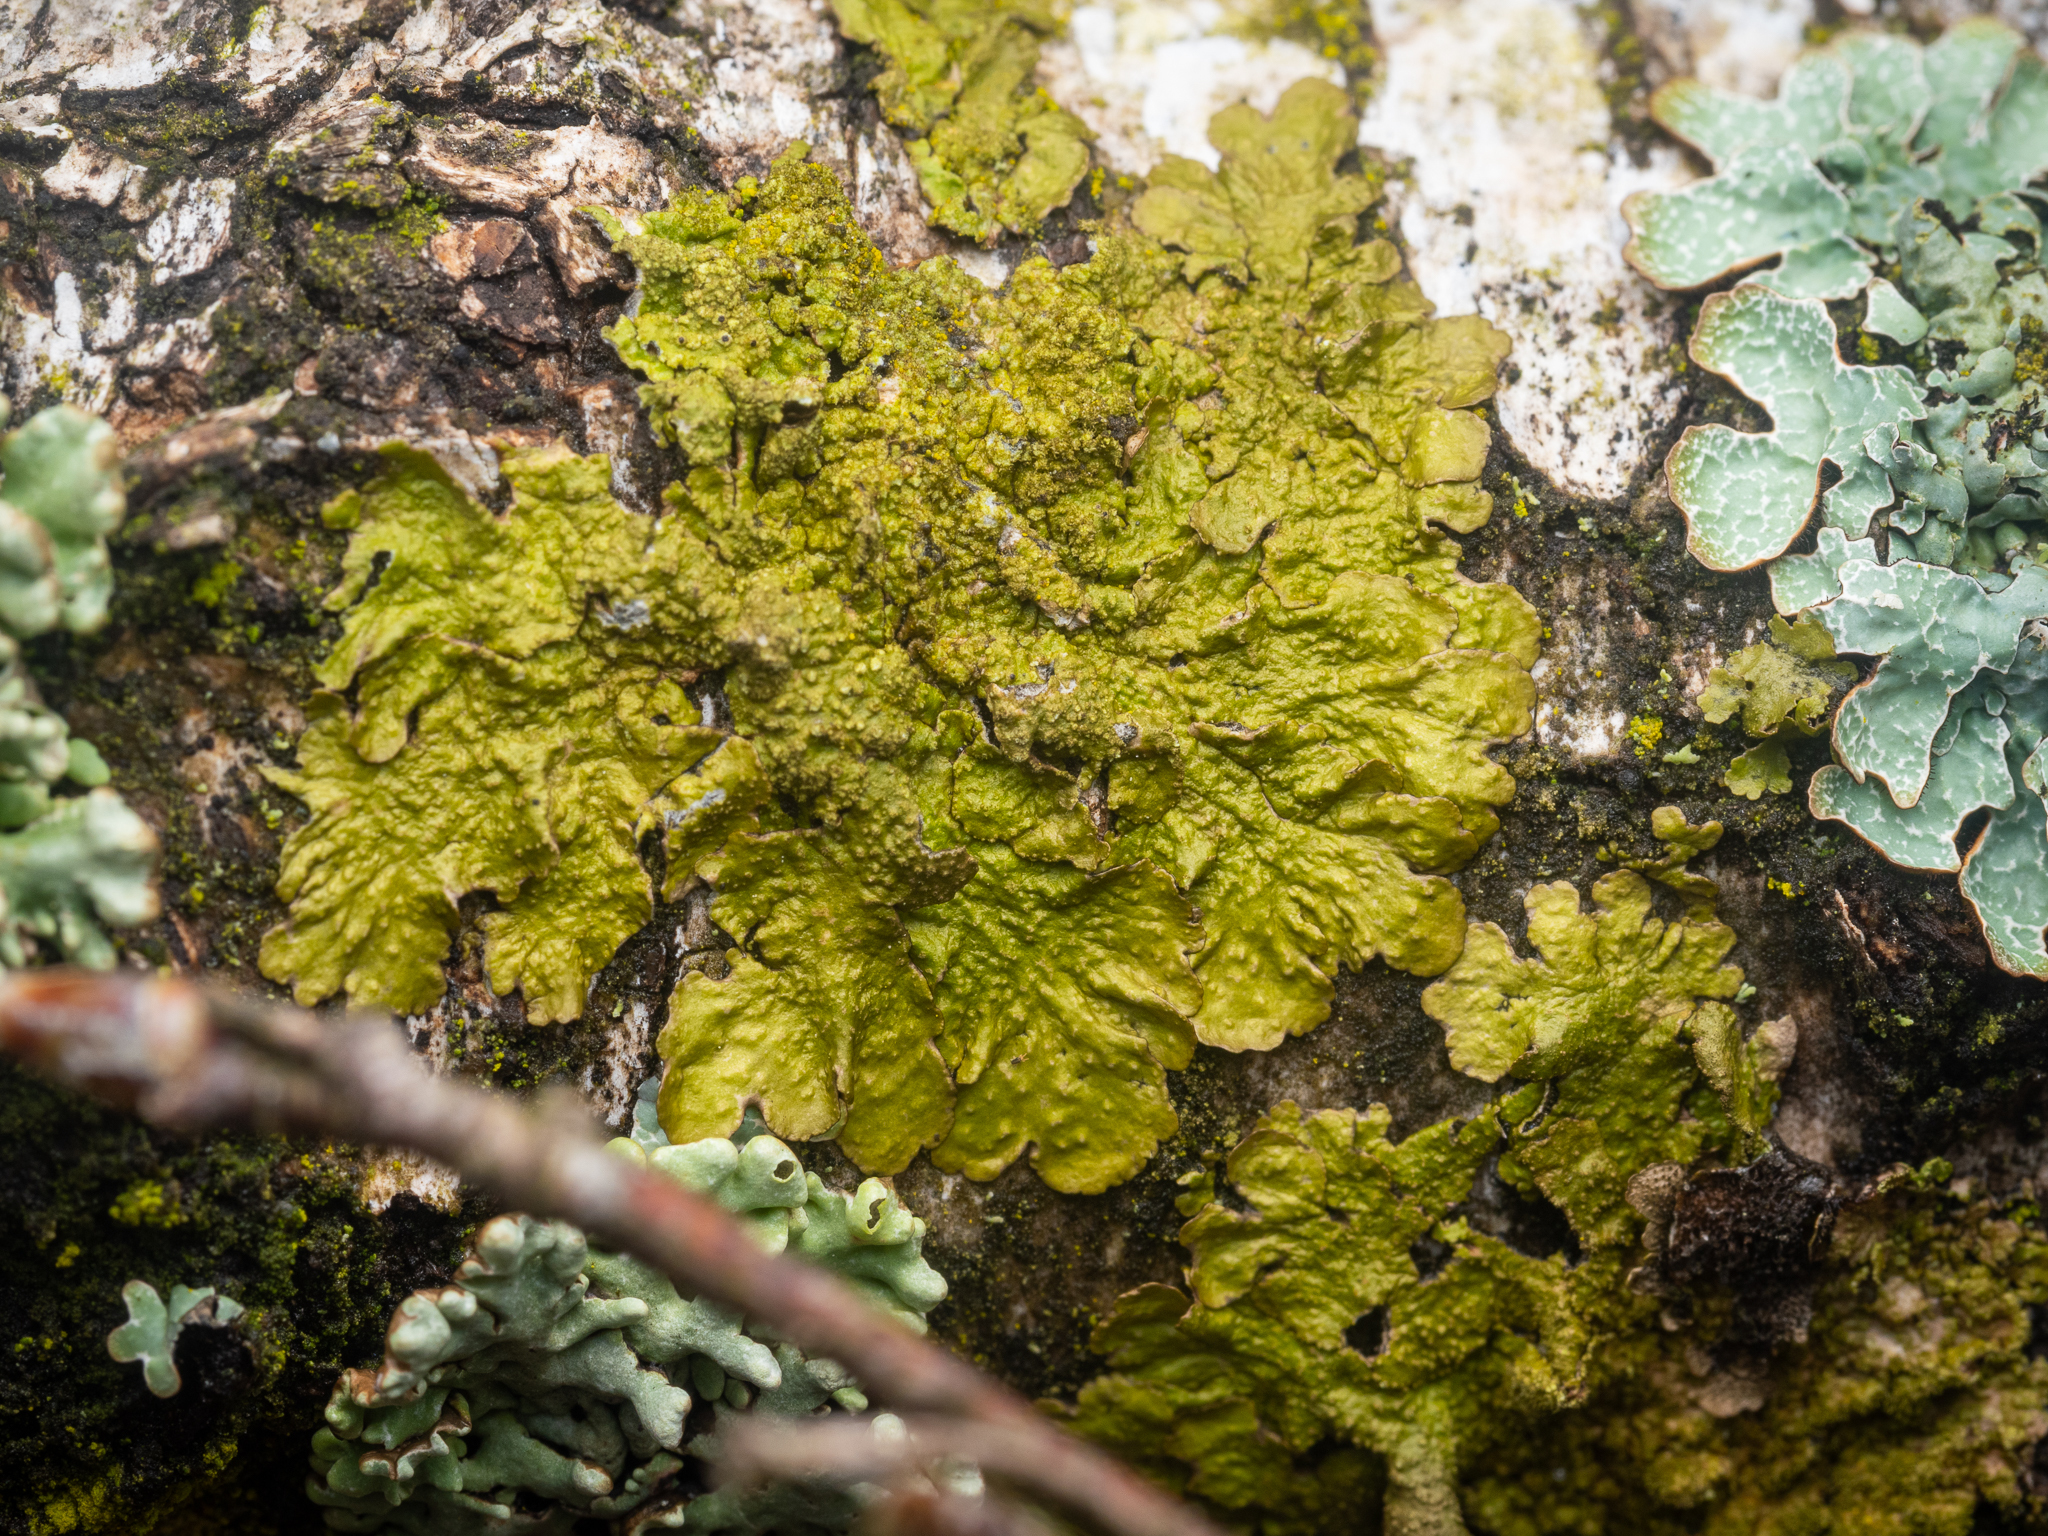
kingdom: Fungi
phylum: Ascomycota
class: Lecanoromycetes
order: Lecanorales
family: Parmeliaceae
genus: Melanelixia
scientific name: Melanelixia subaurifera
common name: Abraded camouflage lichen
